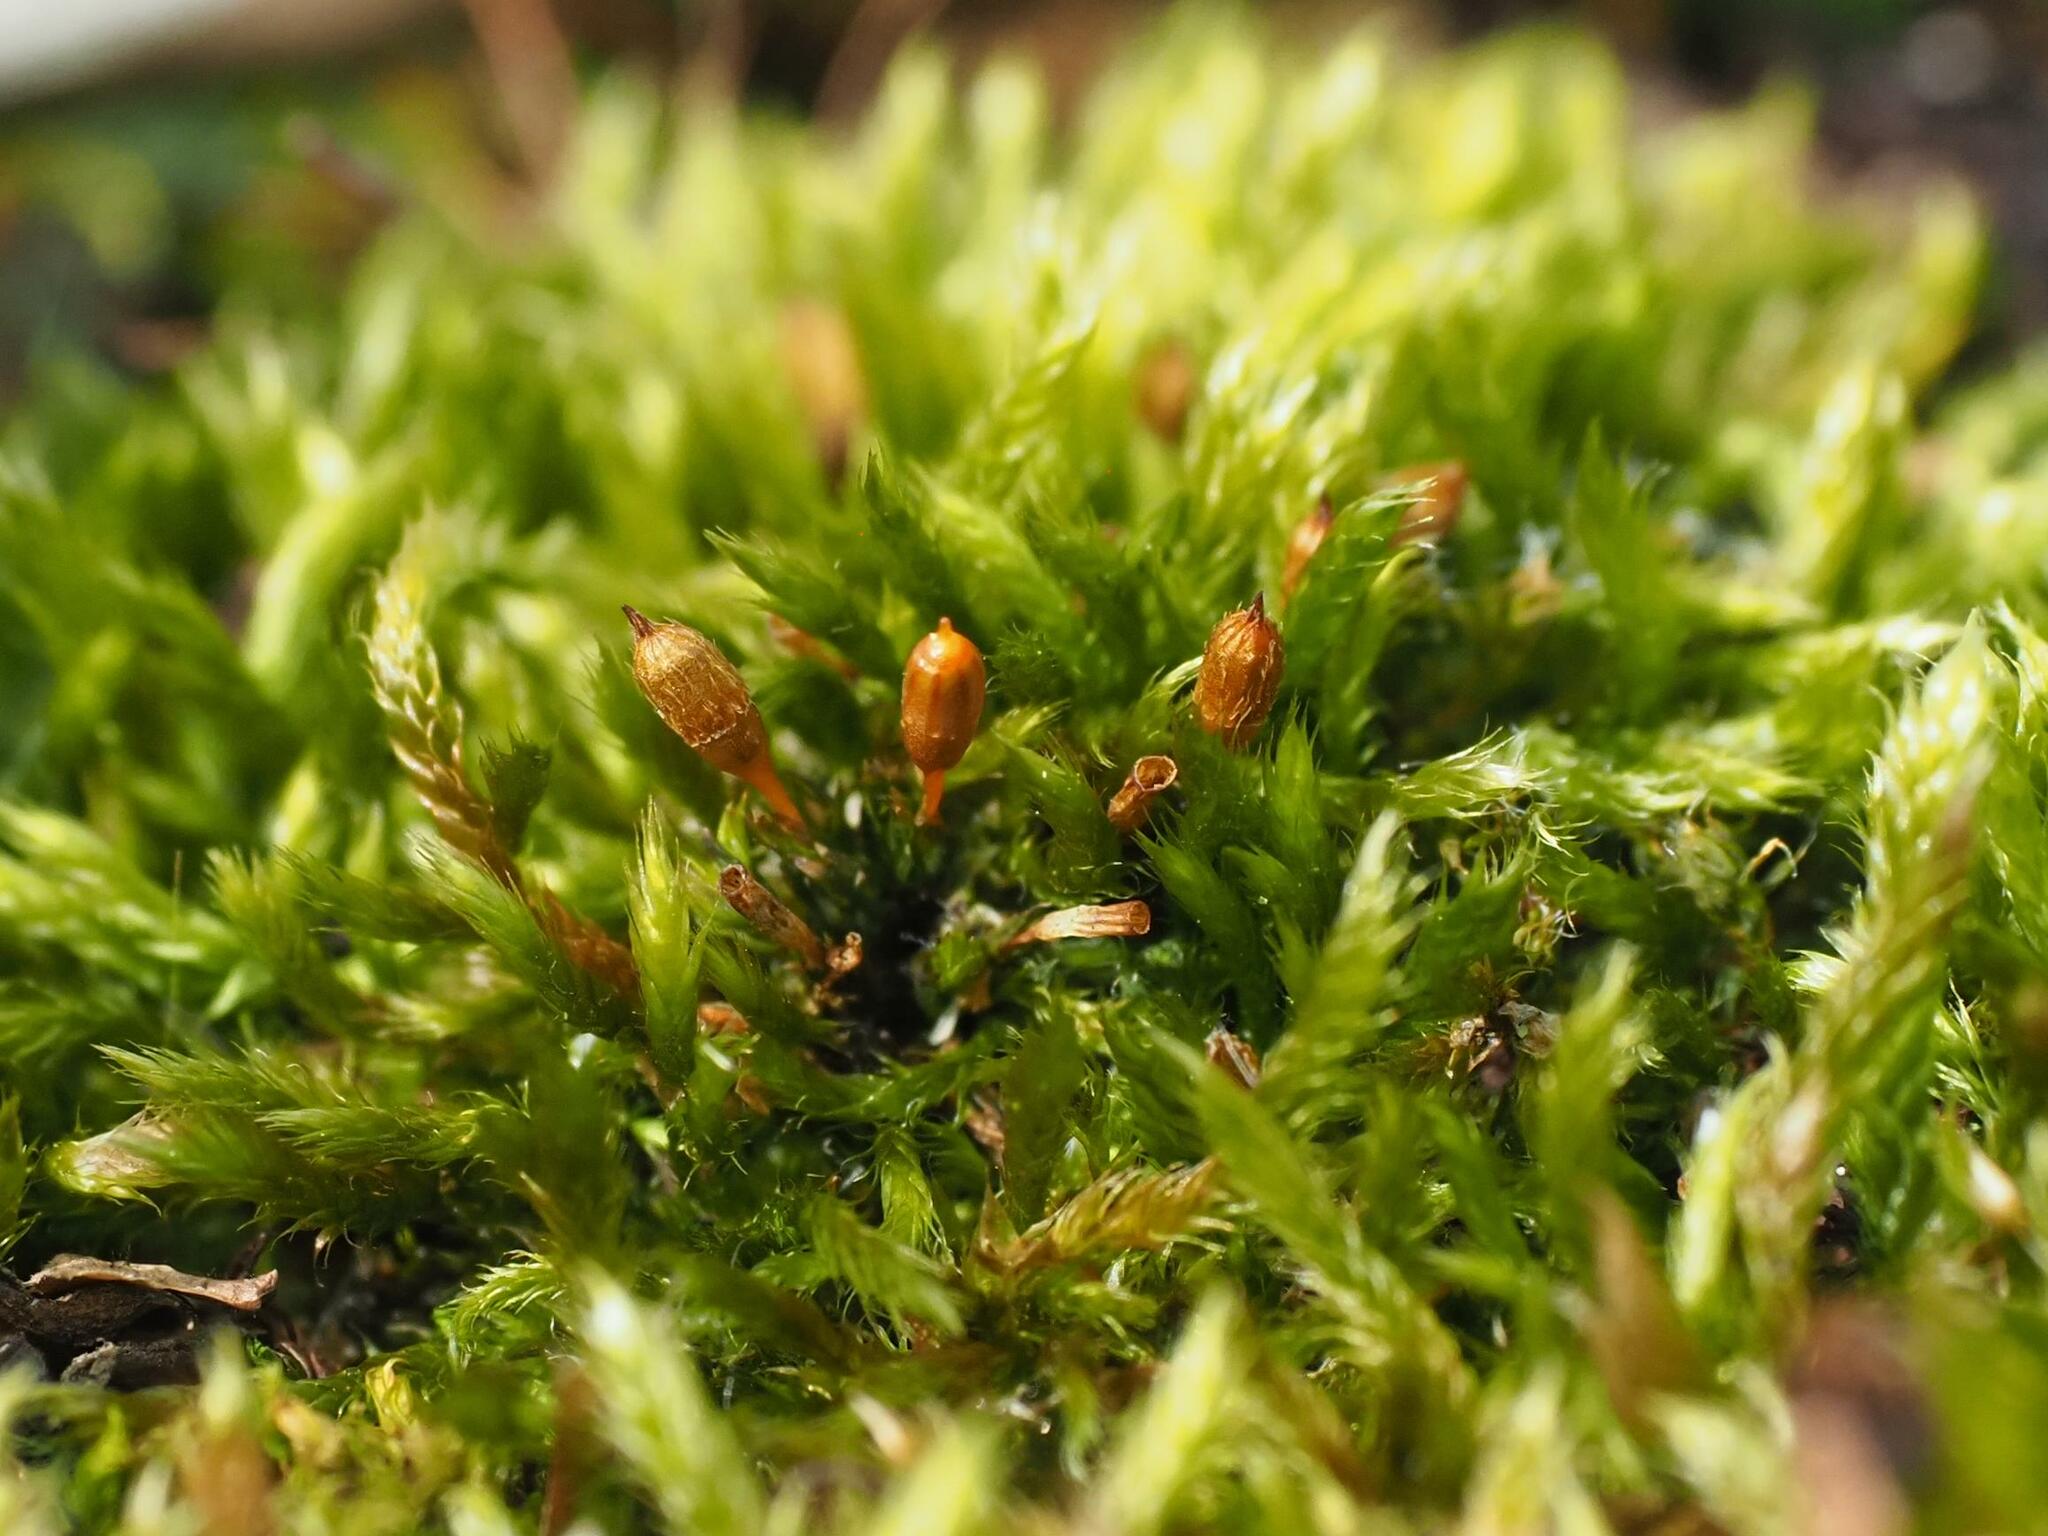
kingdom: Plantae
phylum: Bryophyta
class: Bryopsida
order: Orthotrichales
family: Orthotrichaceae
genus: Orthotrichum
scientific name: Orthotrichum anomalum
